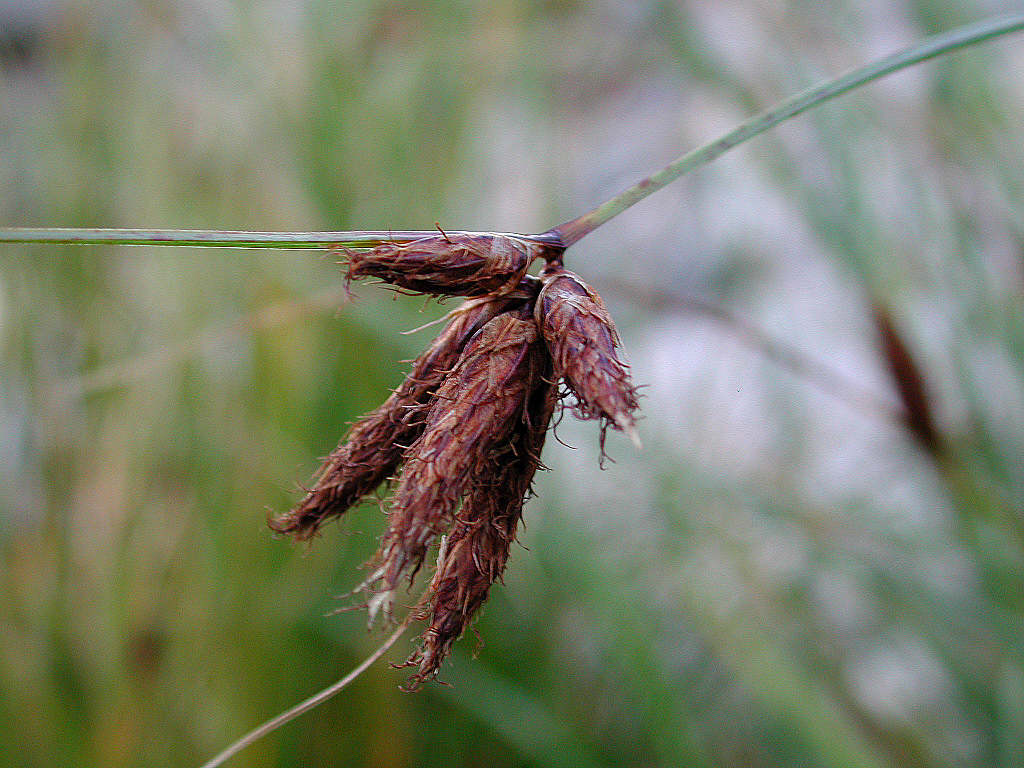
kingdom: Plantae
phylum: Tracheophyta
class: Liliopsida
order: Poales
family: Cyperaceae
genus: Bolboschoenus
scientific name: Bolboschoenus maritimus
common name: Sea club-rush
